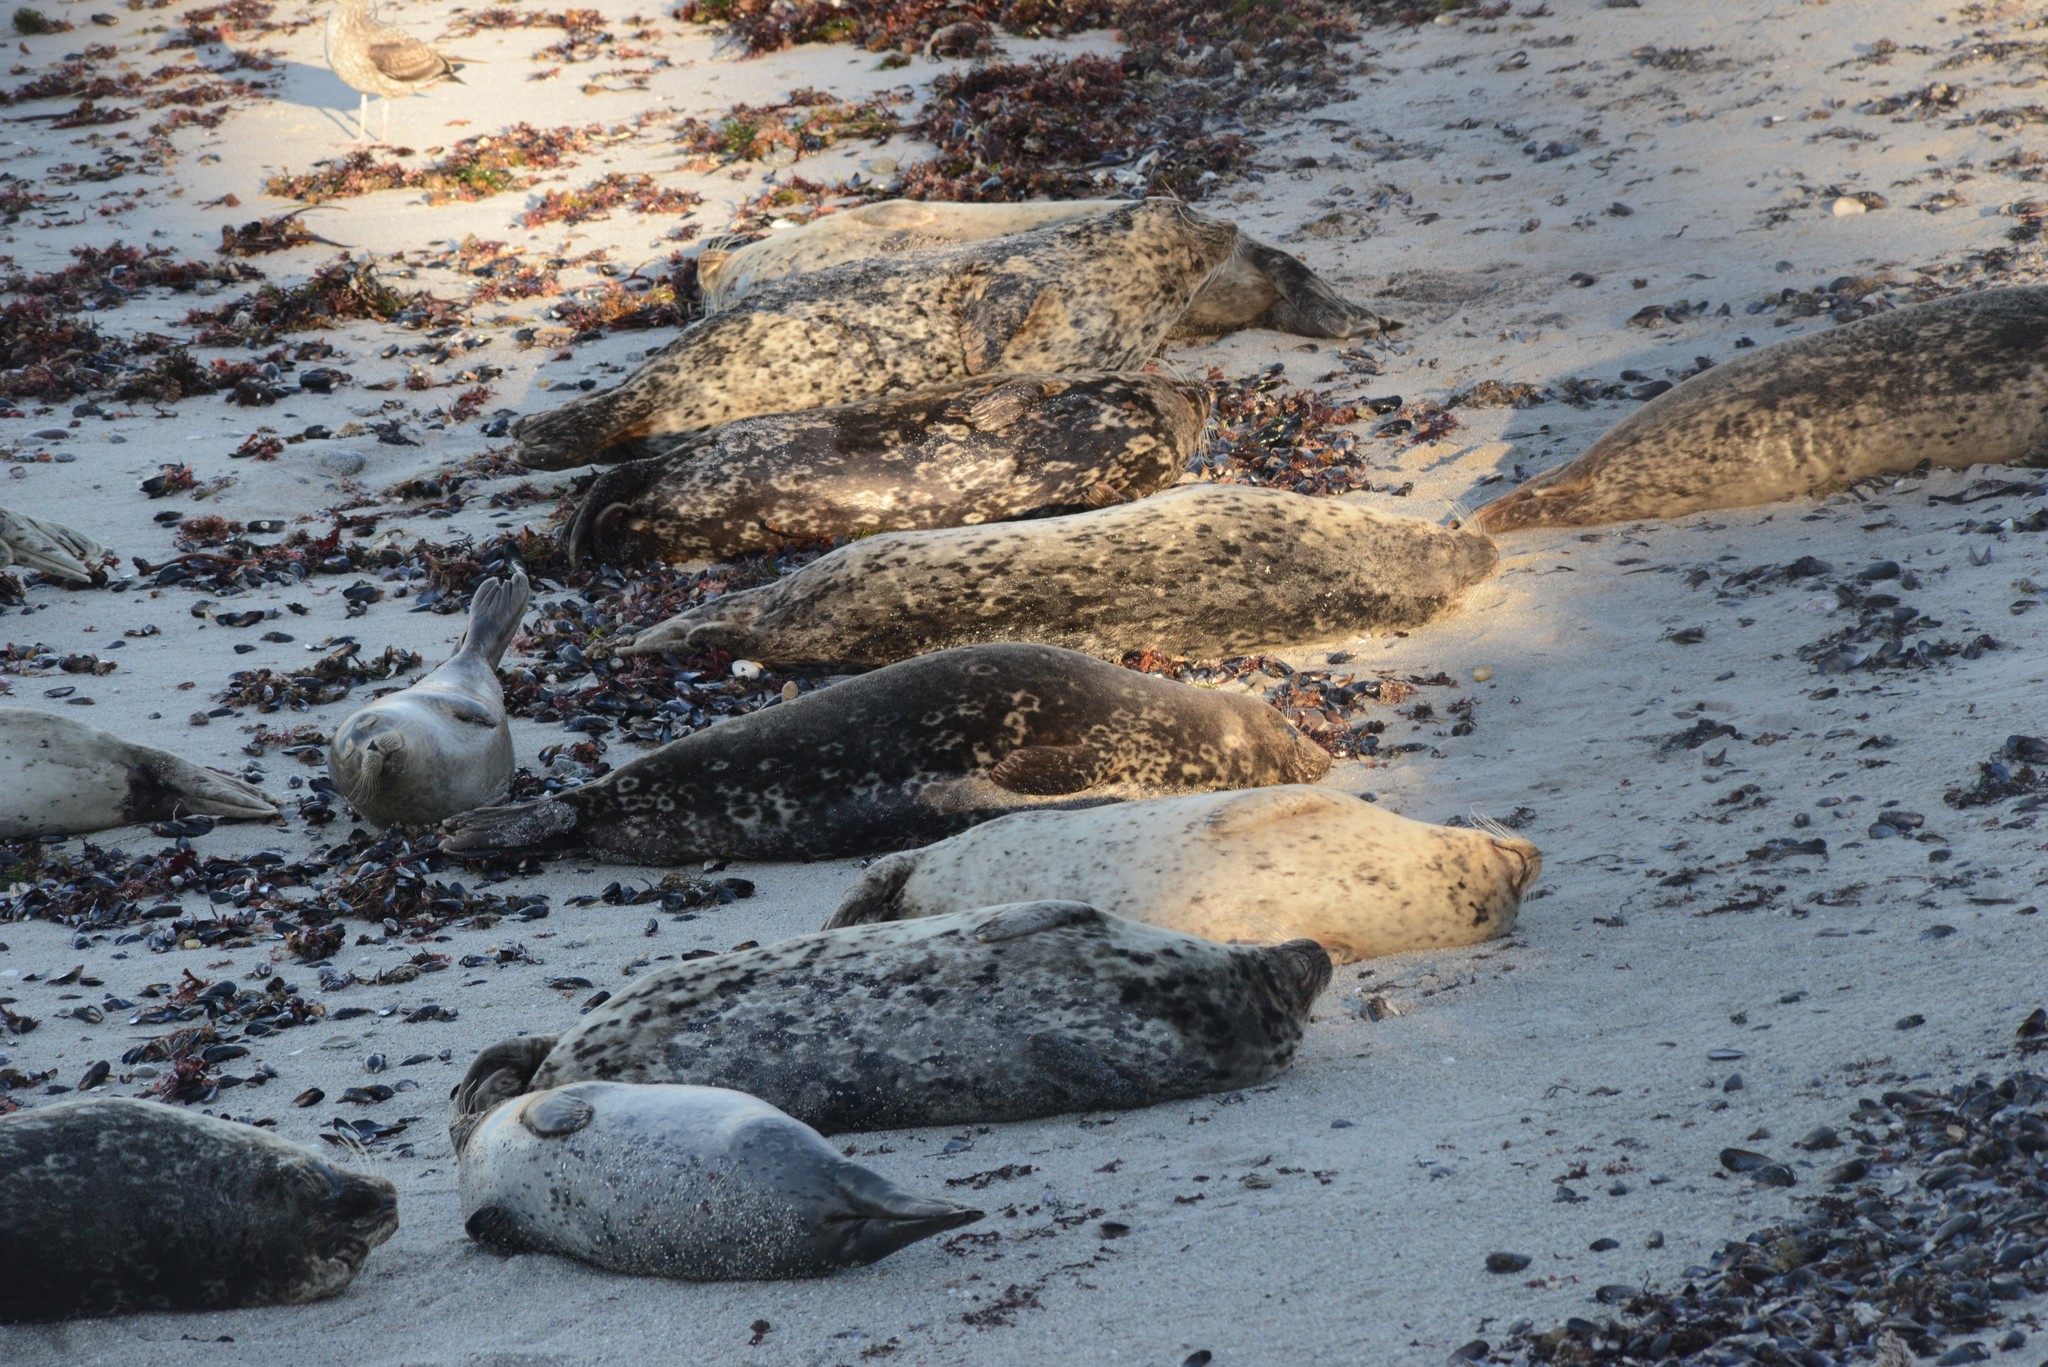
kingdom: Animalia
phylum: Chordata
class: Mammalia
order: Carnivora
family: Phocidae
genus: Phoca
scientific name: Phoca vitulina
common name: Harbor seal
